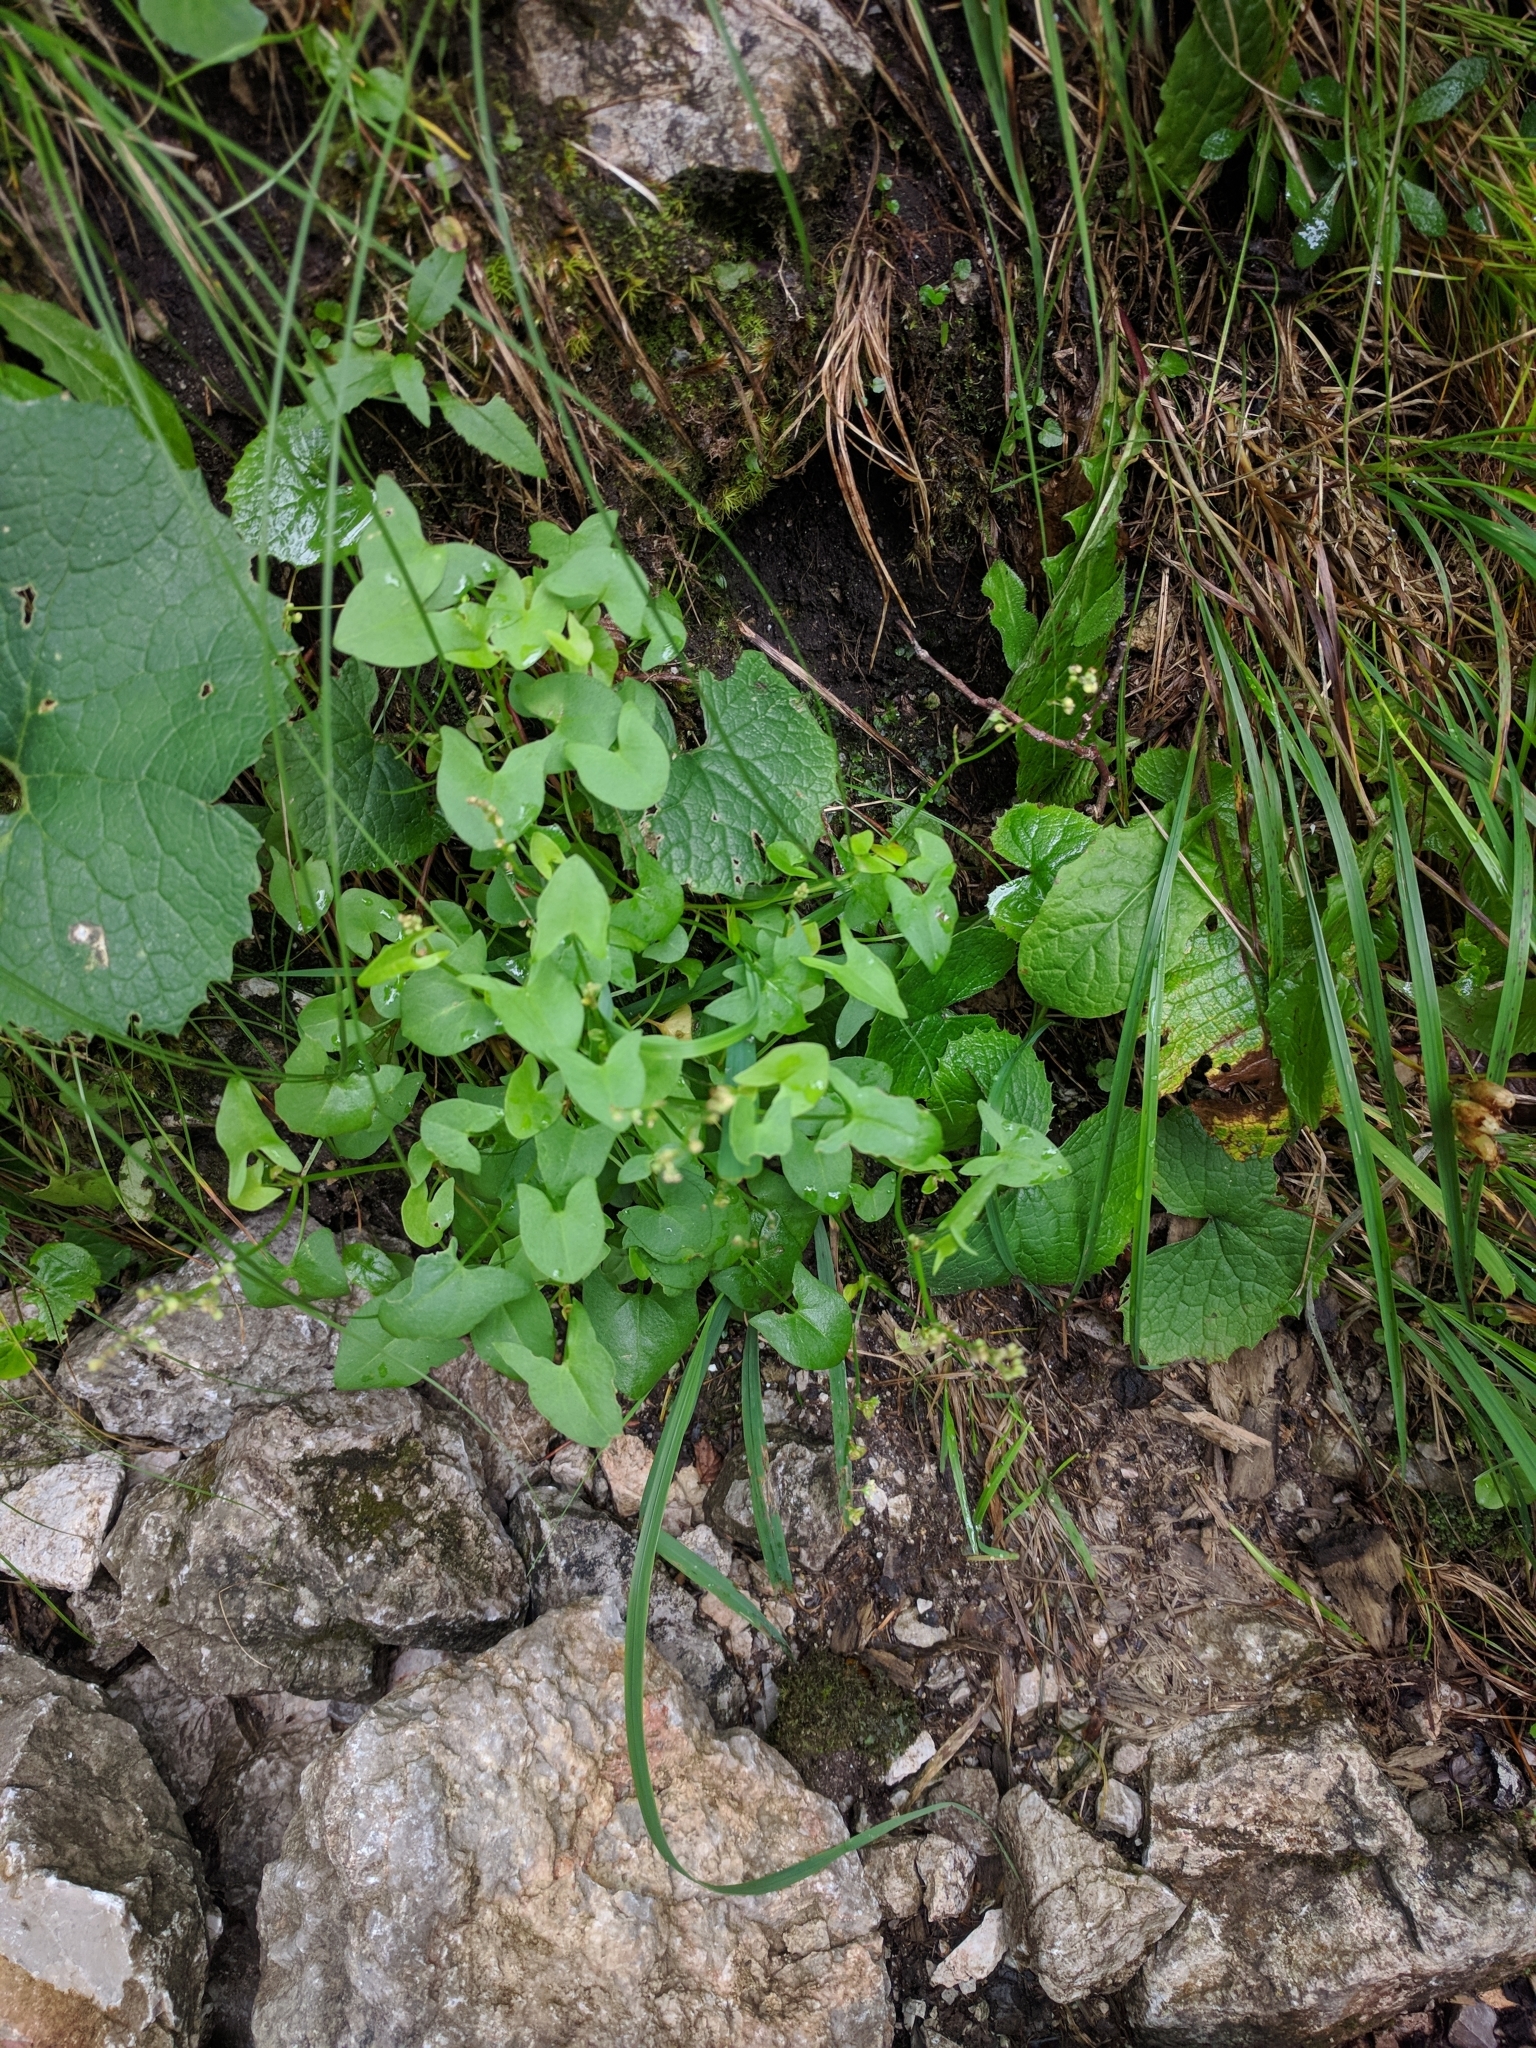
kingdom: Plantae
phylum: Tracheophyta
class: Magnoliopsida
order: Caryophyllales
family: Polygonaceae
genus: Rumex
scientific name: Rumex scutatus
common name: French sorrel
